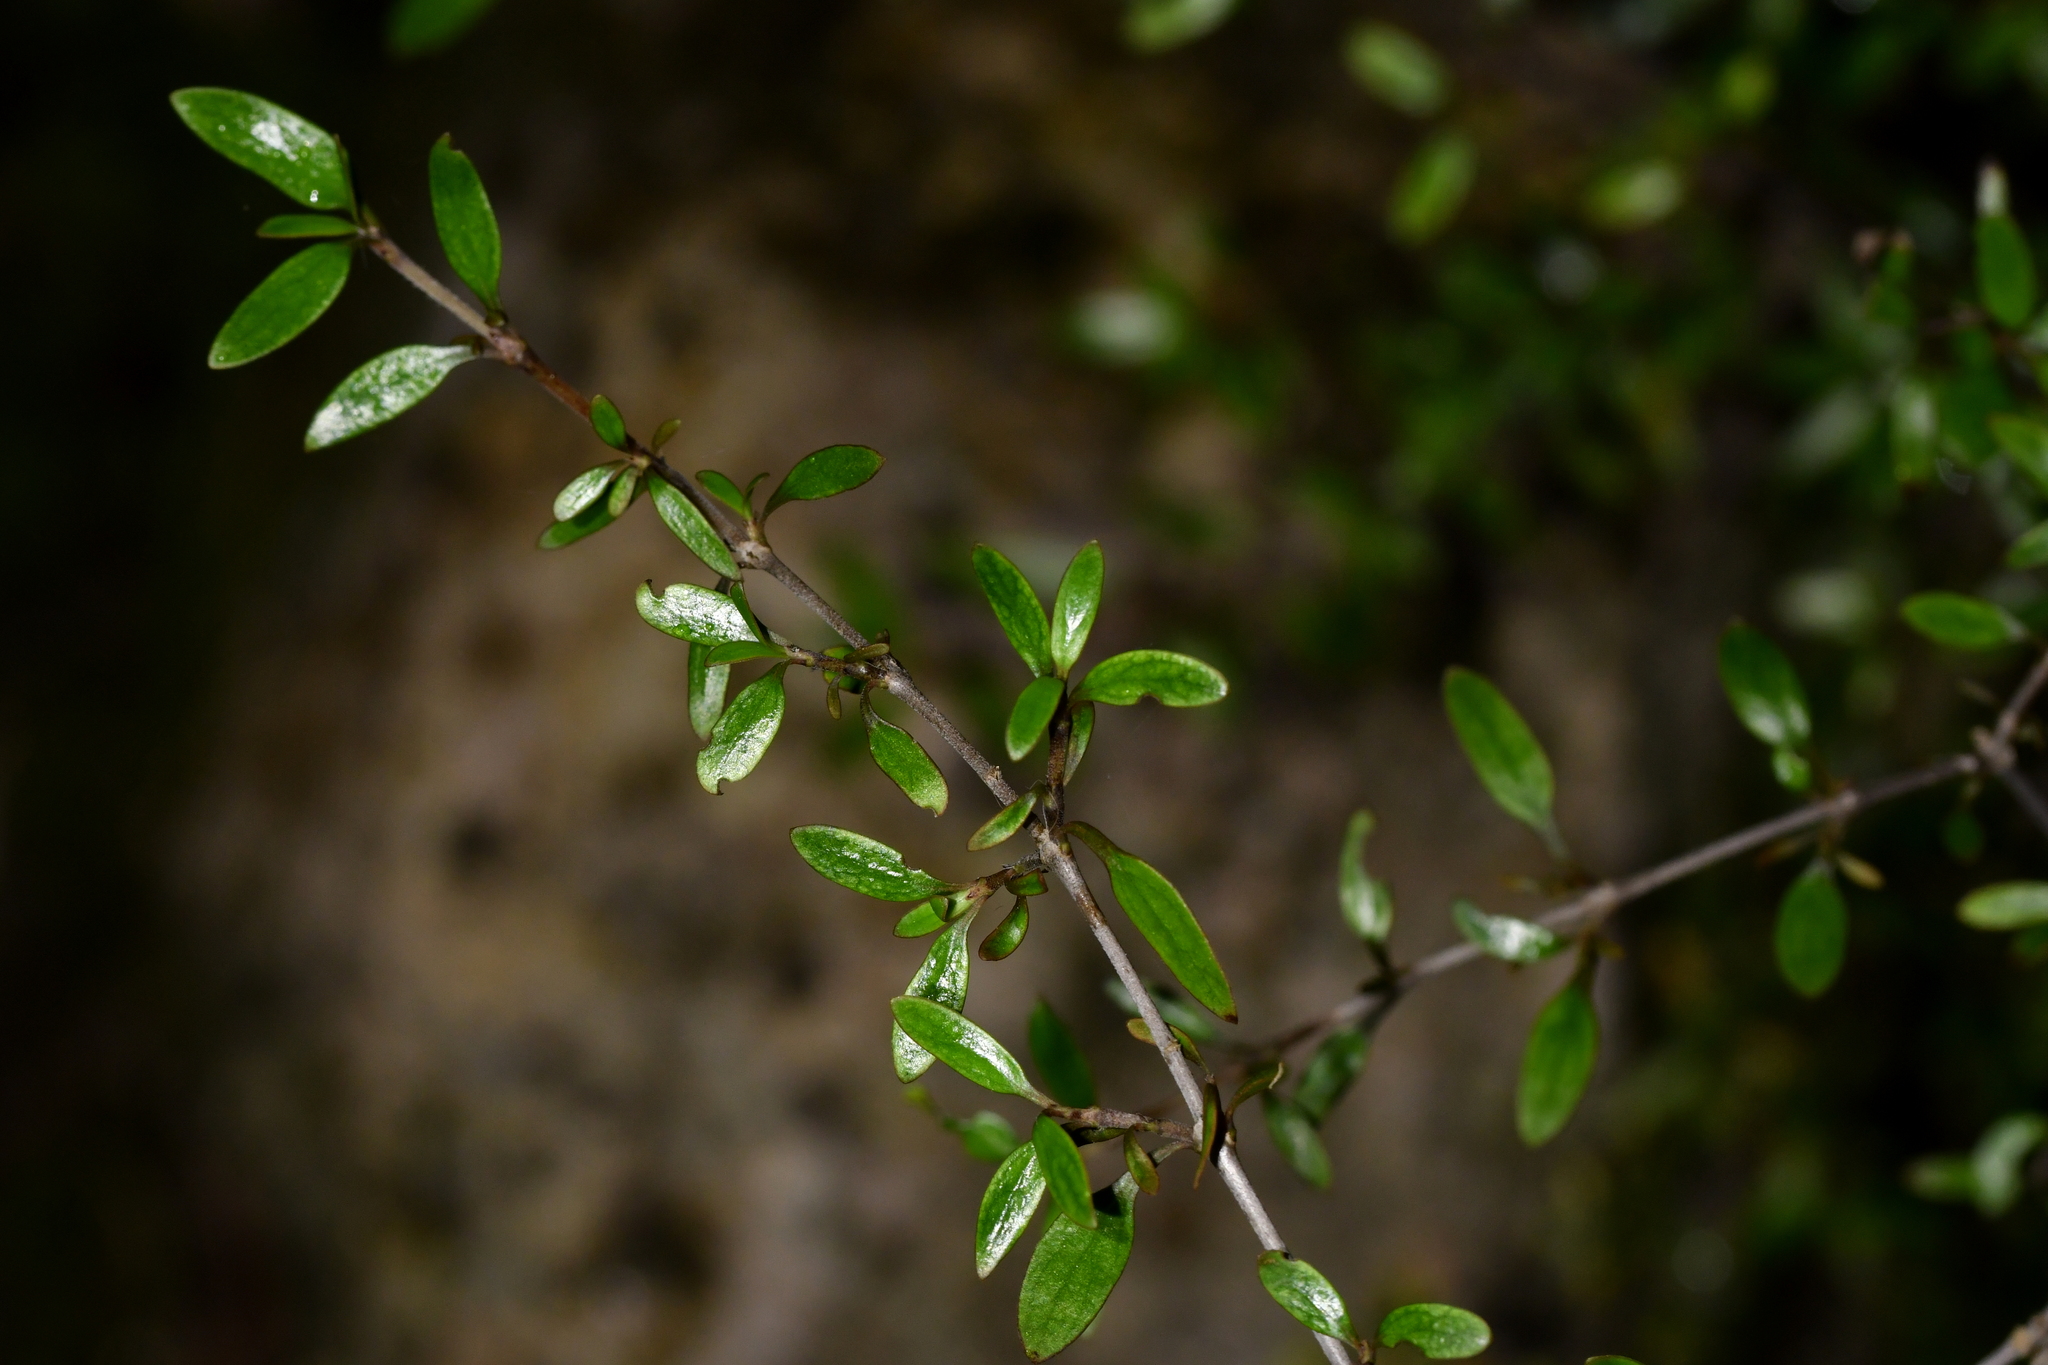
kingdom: Plantae
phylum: Tracheophyta
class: Magnoliopsida
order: Gentianales
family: Rubiaceae
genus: Coprosma
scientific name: Coprosma propinqua
